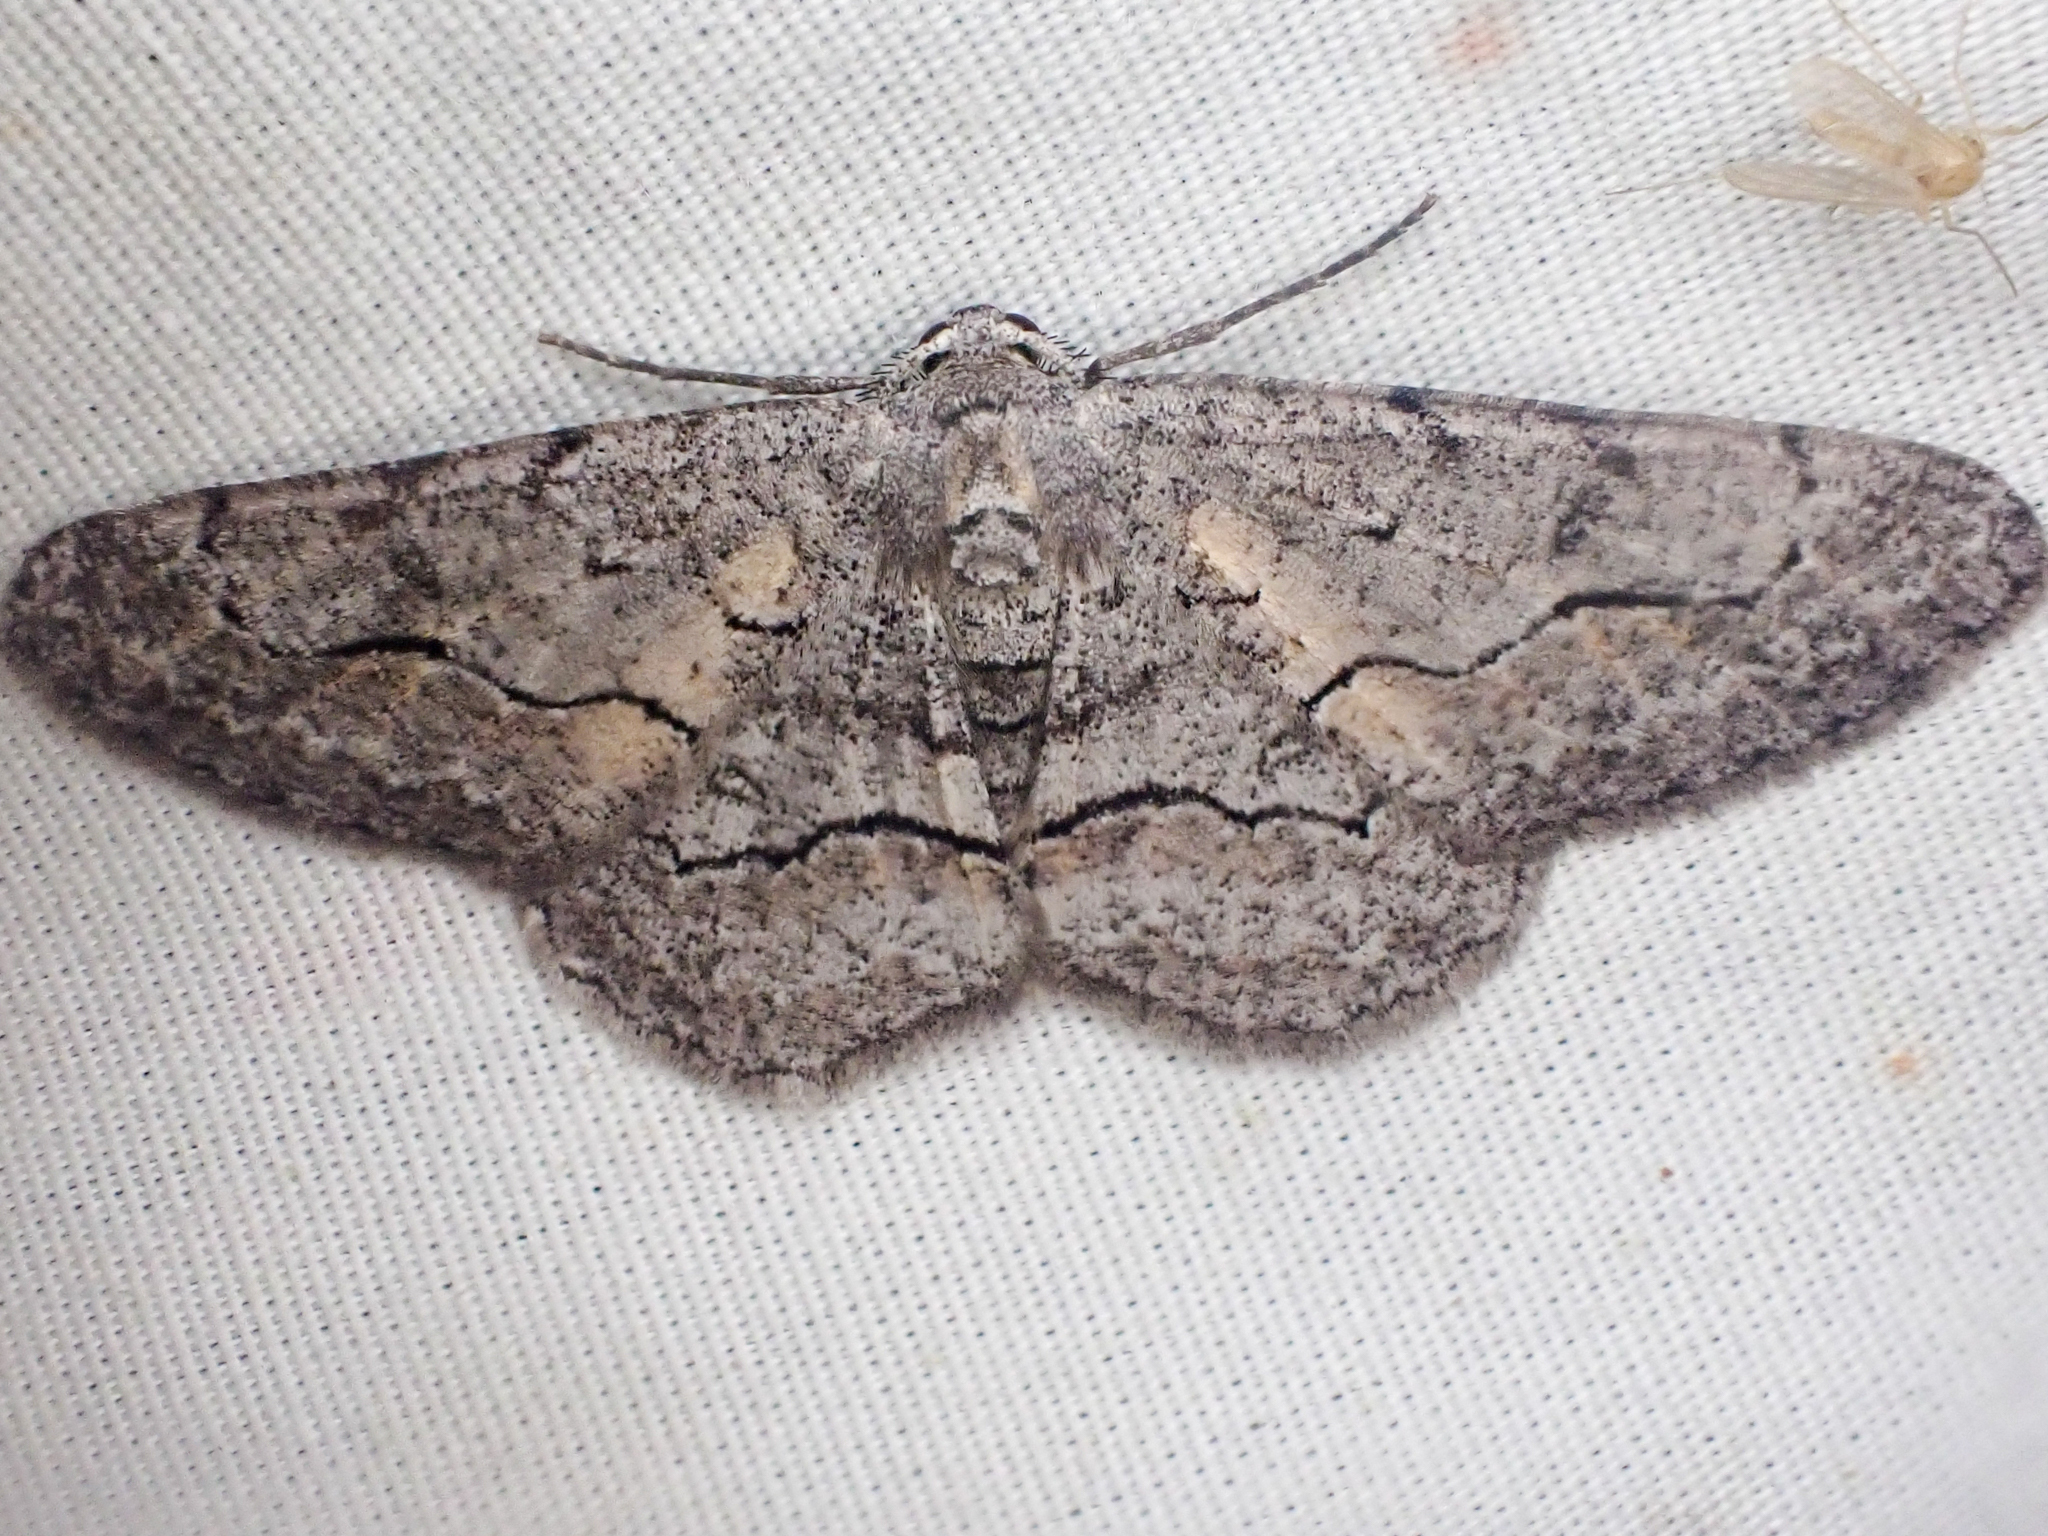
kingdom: Animalia
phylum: Arthropoda
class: Insecta
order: Lepidoptera
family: Geometridae
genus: Stenoporpia
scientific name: Stenoporpia pulmonaria
